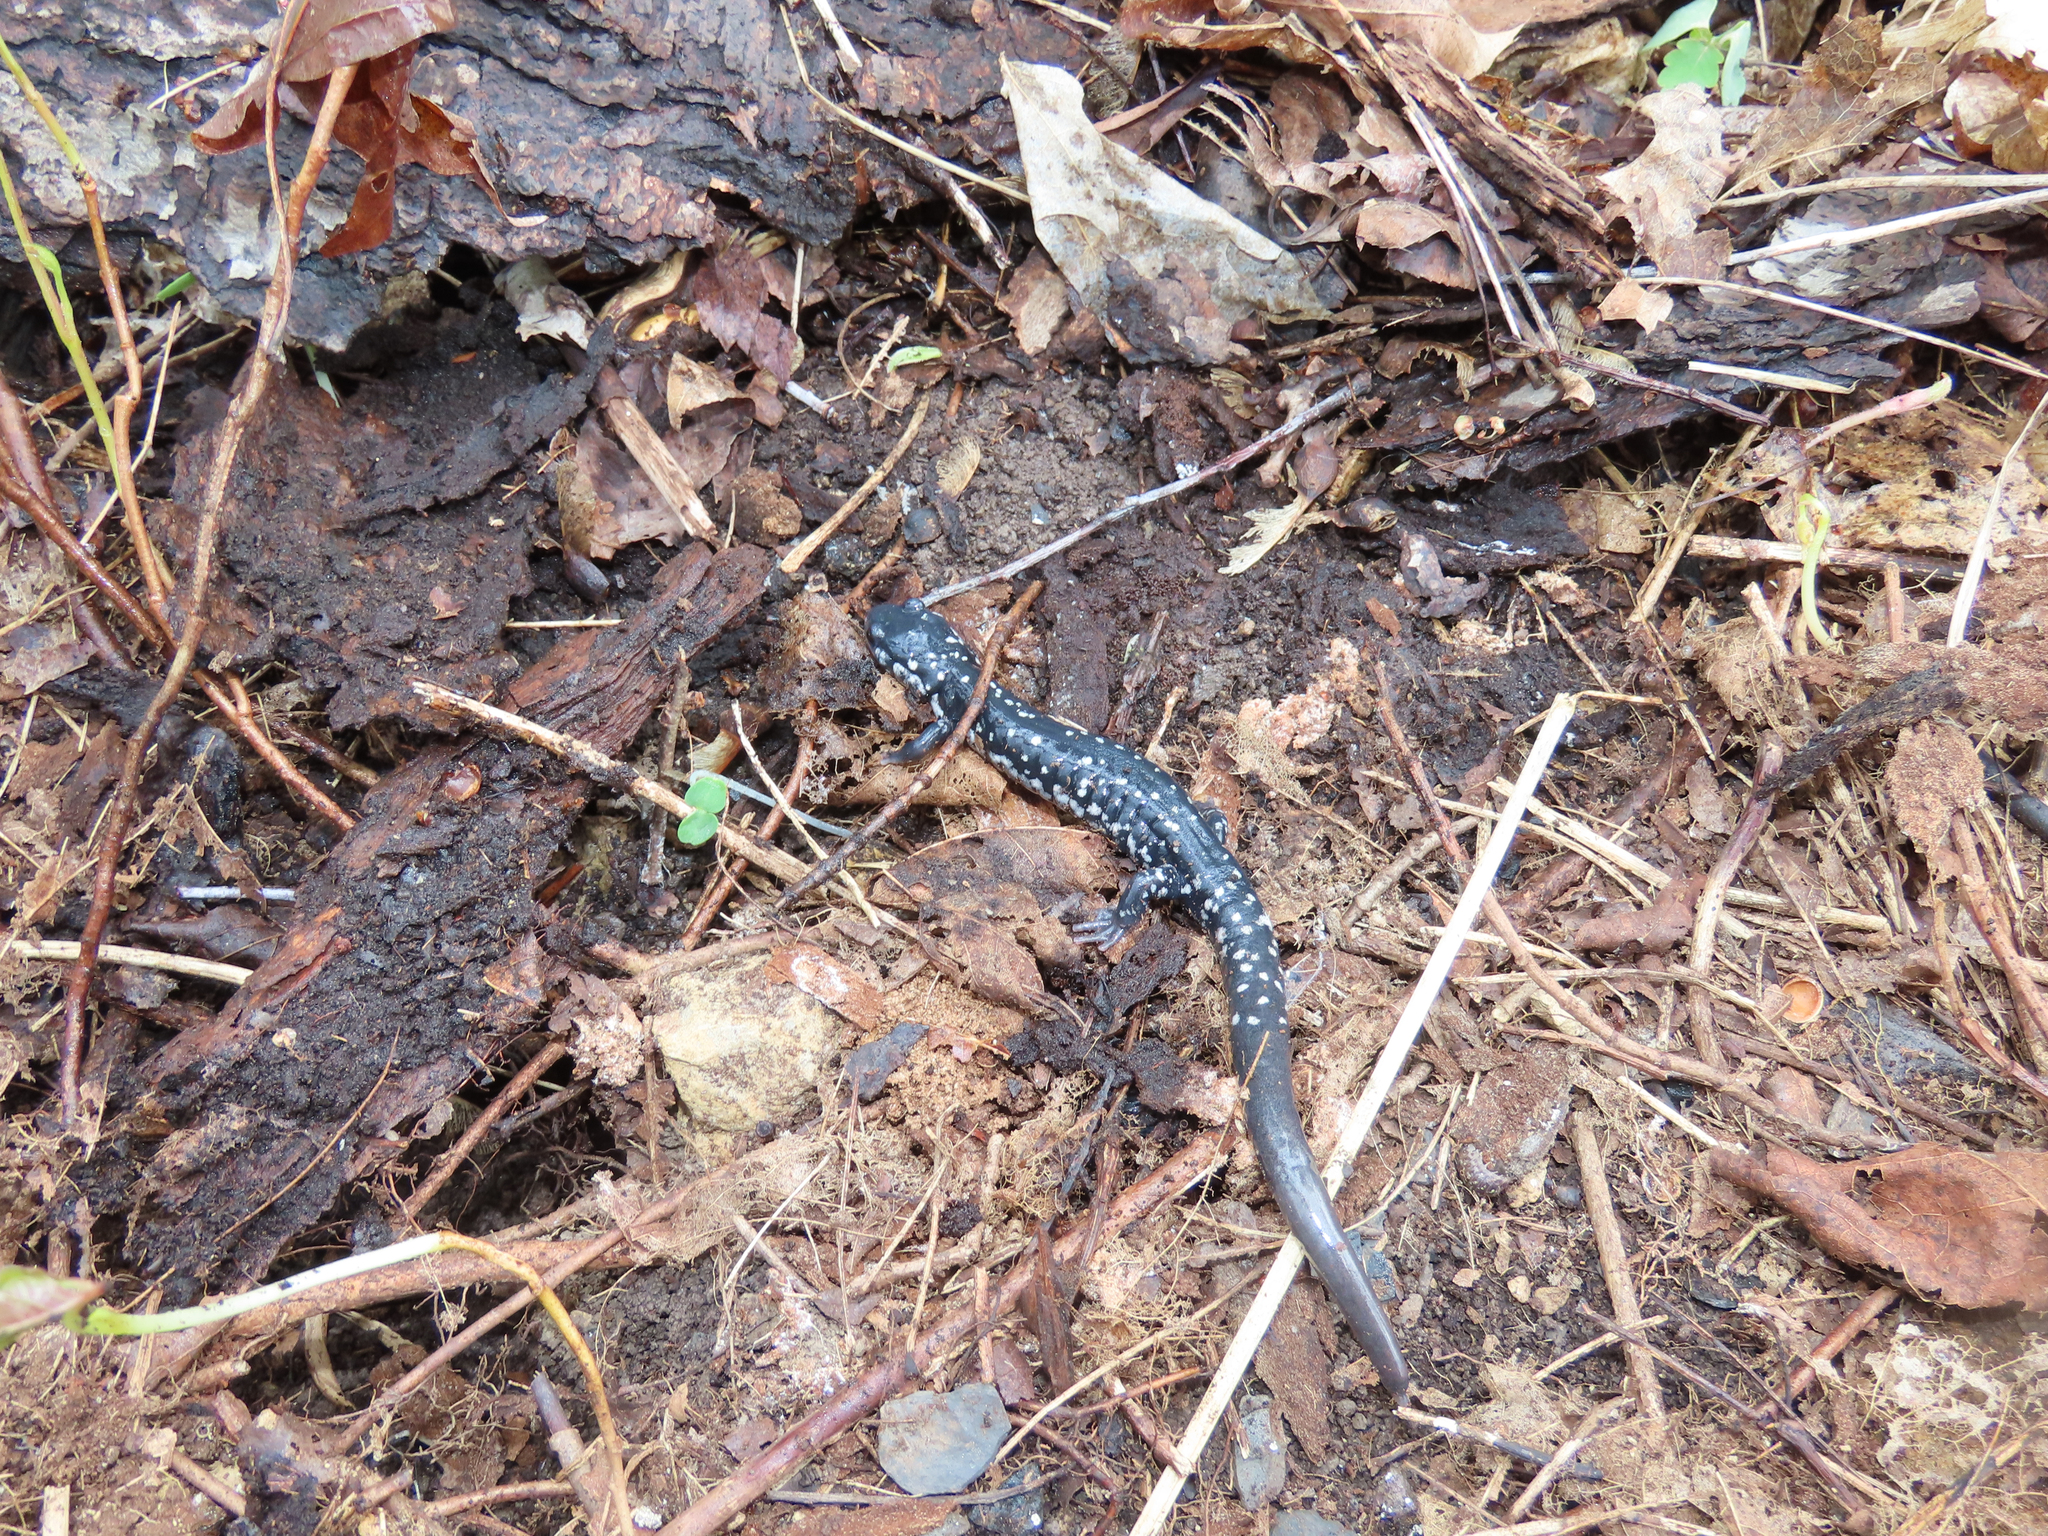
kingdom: Animalia
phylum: Chordata
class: Amphibia
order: Caudata
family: Plethodontidae
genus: Plethodon
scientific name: Plethodon glutinosus
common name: Northern slimy salamander
